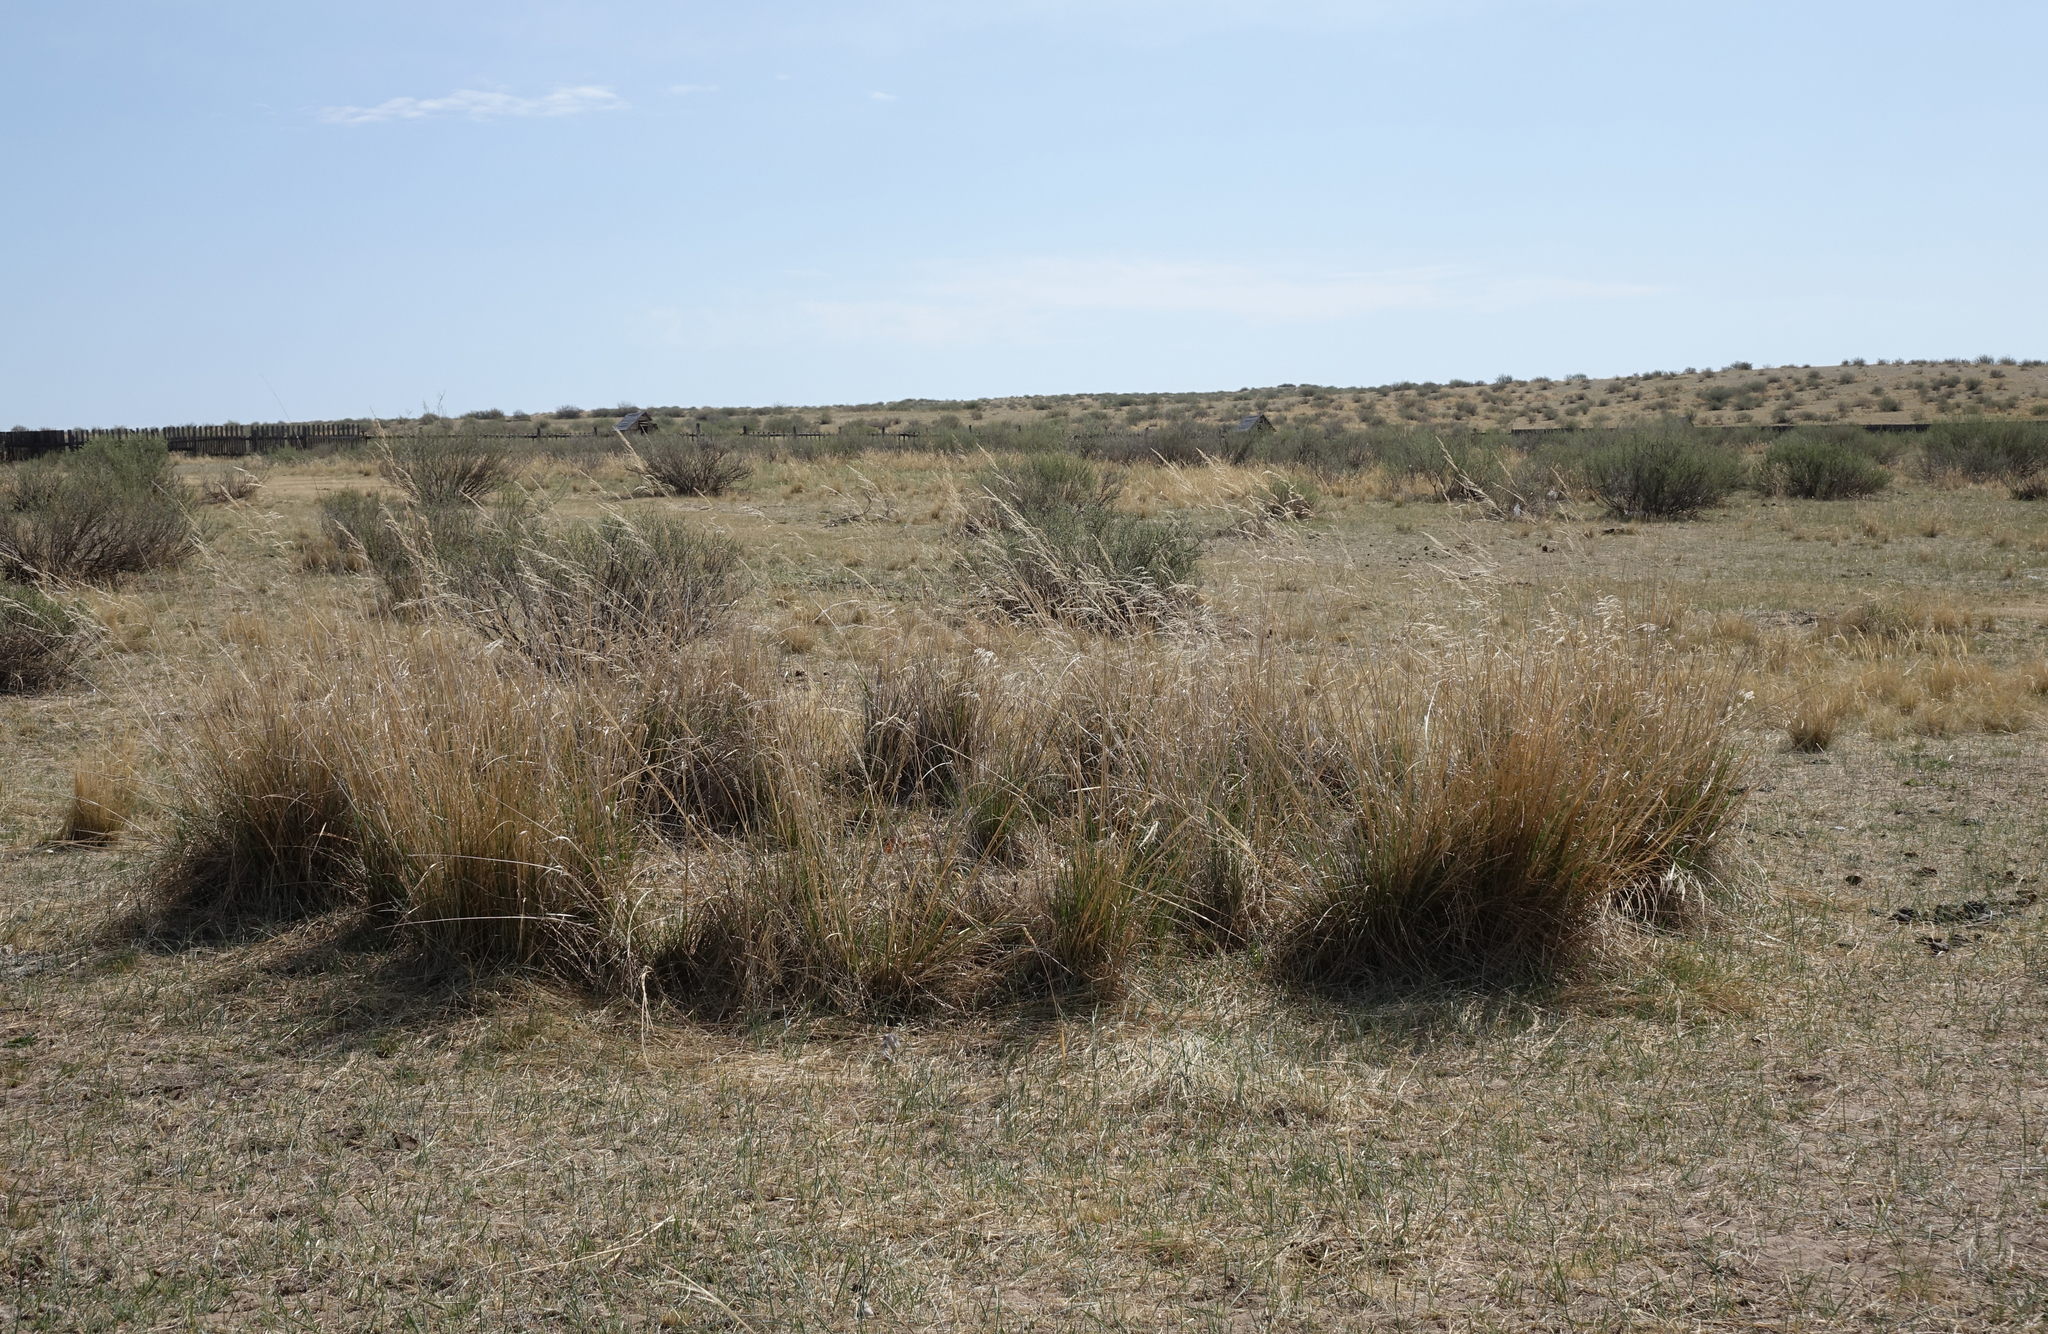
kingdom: Plantae
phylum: Tracheophyta
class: Liliopsida
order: Poales
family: Poaceae
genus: Neotrinia
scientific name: Neotrinia splendens
